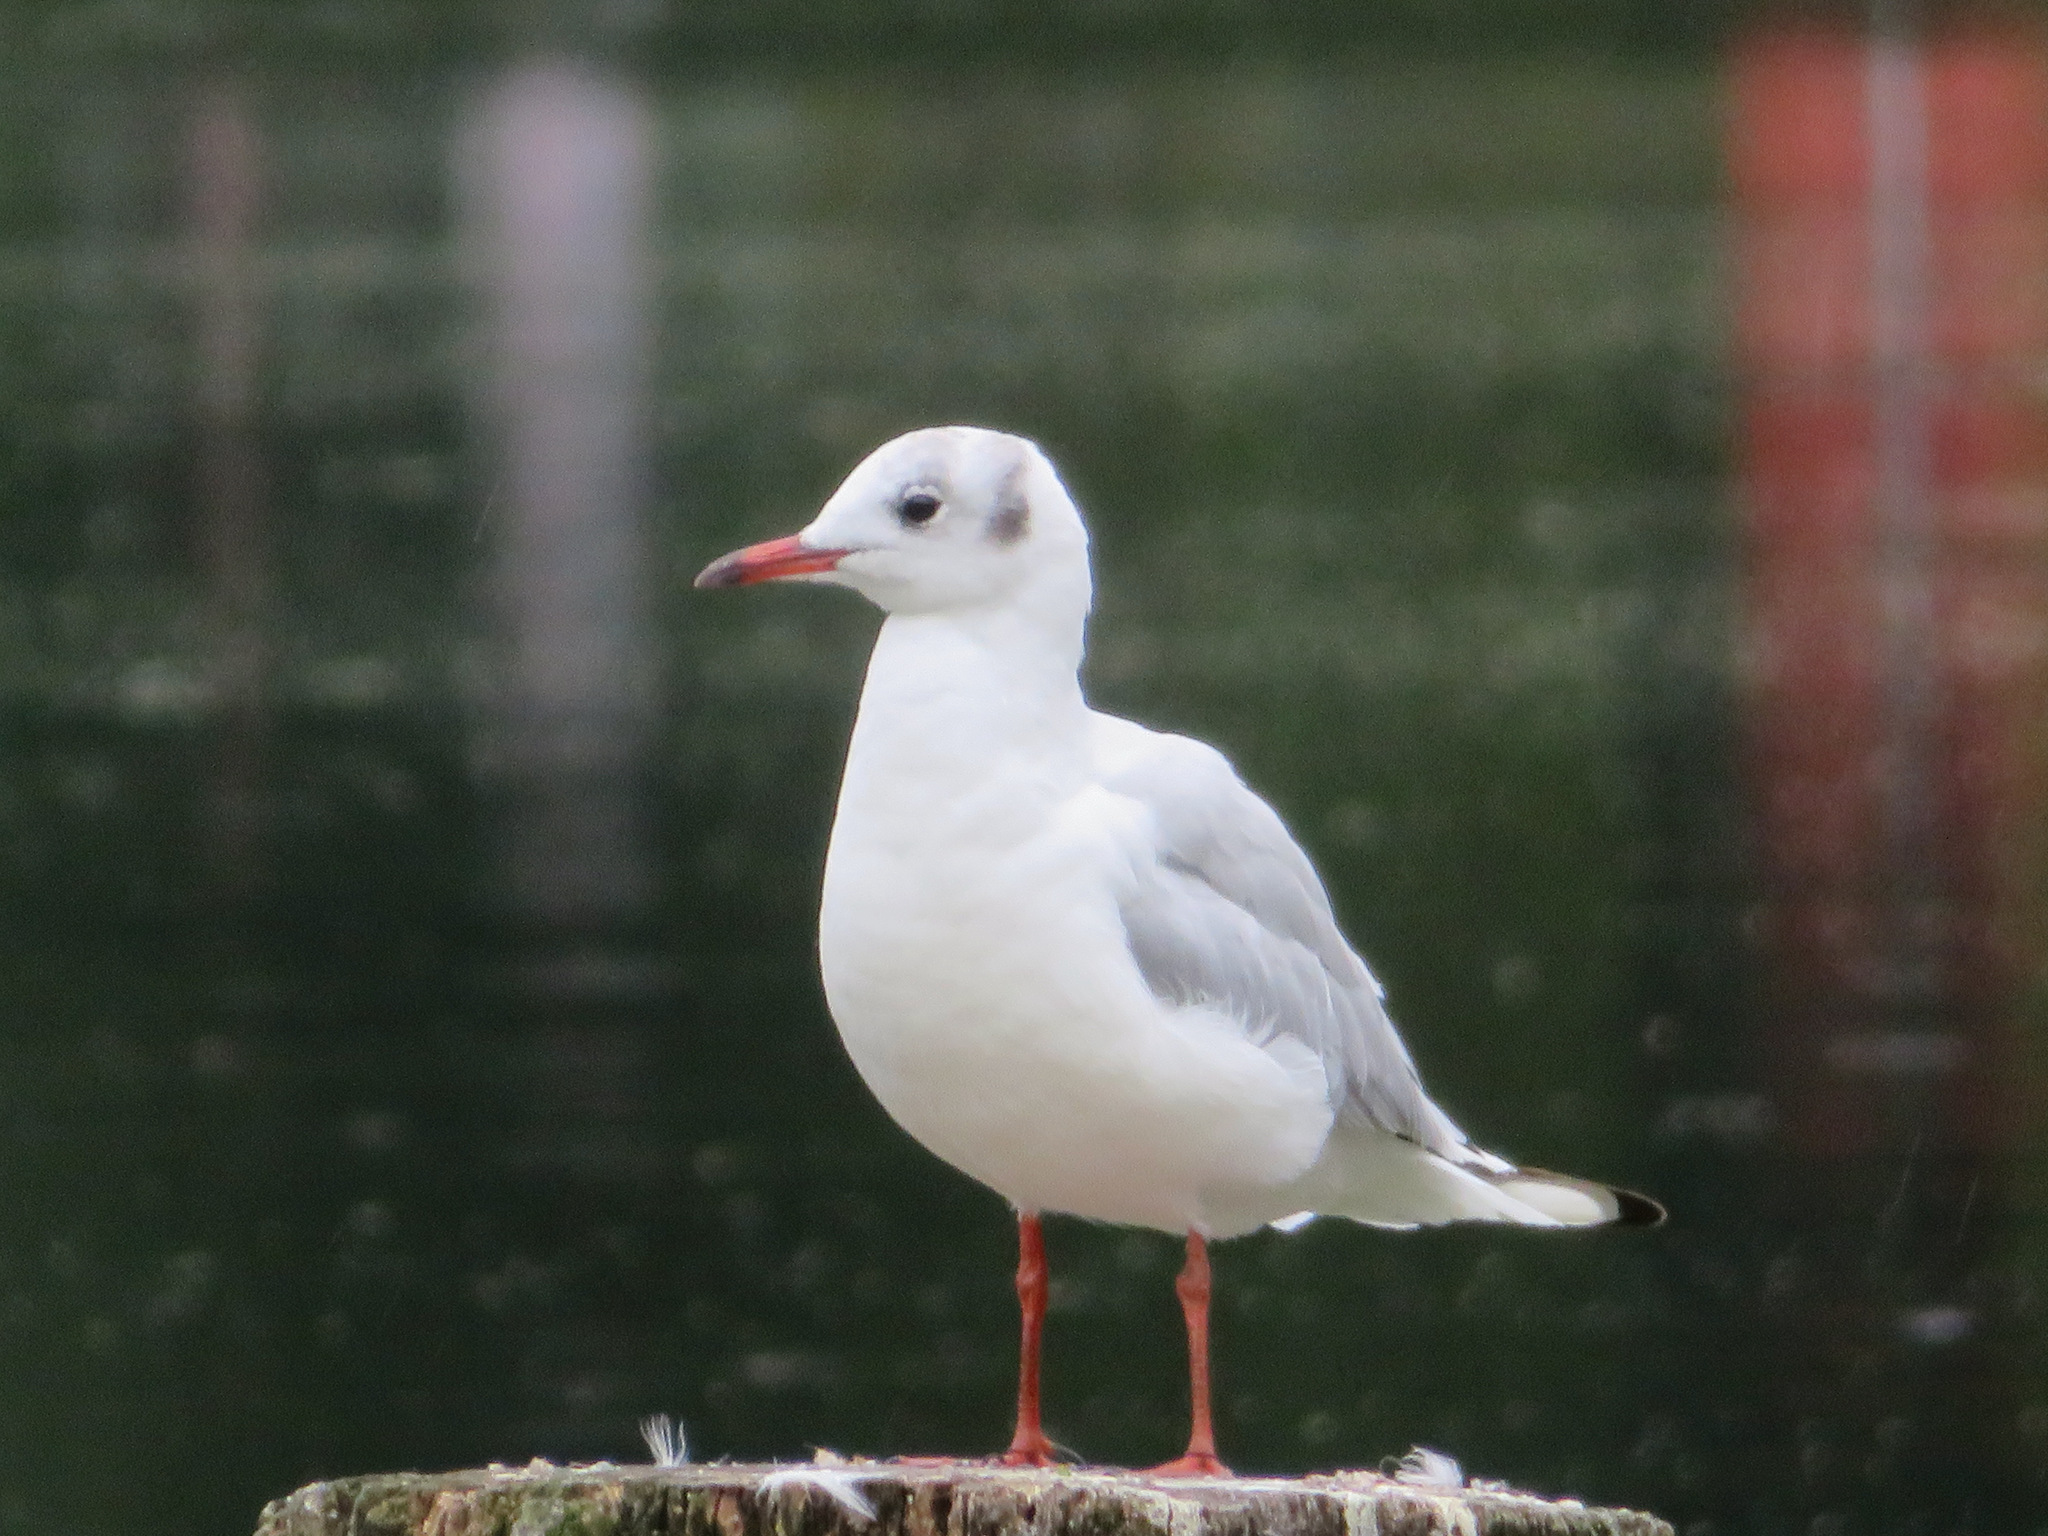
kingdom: Animalia
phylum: Chordata
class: Aves
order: Charadriiformes
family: Laridae
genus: Chroicocephalus
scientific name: Chroicocephalus ridibundus
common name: Black-headed gull
